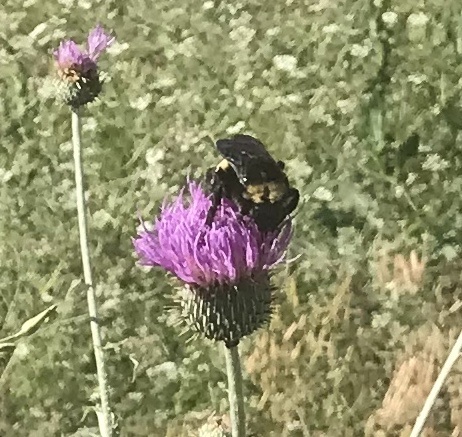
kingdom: Animalia
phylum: Arthropoda
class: Insecta
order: Hymenoptera
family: Apidae
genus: Bombus
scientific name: Bombus pensylvanicus
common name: Bumble bee
